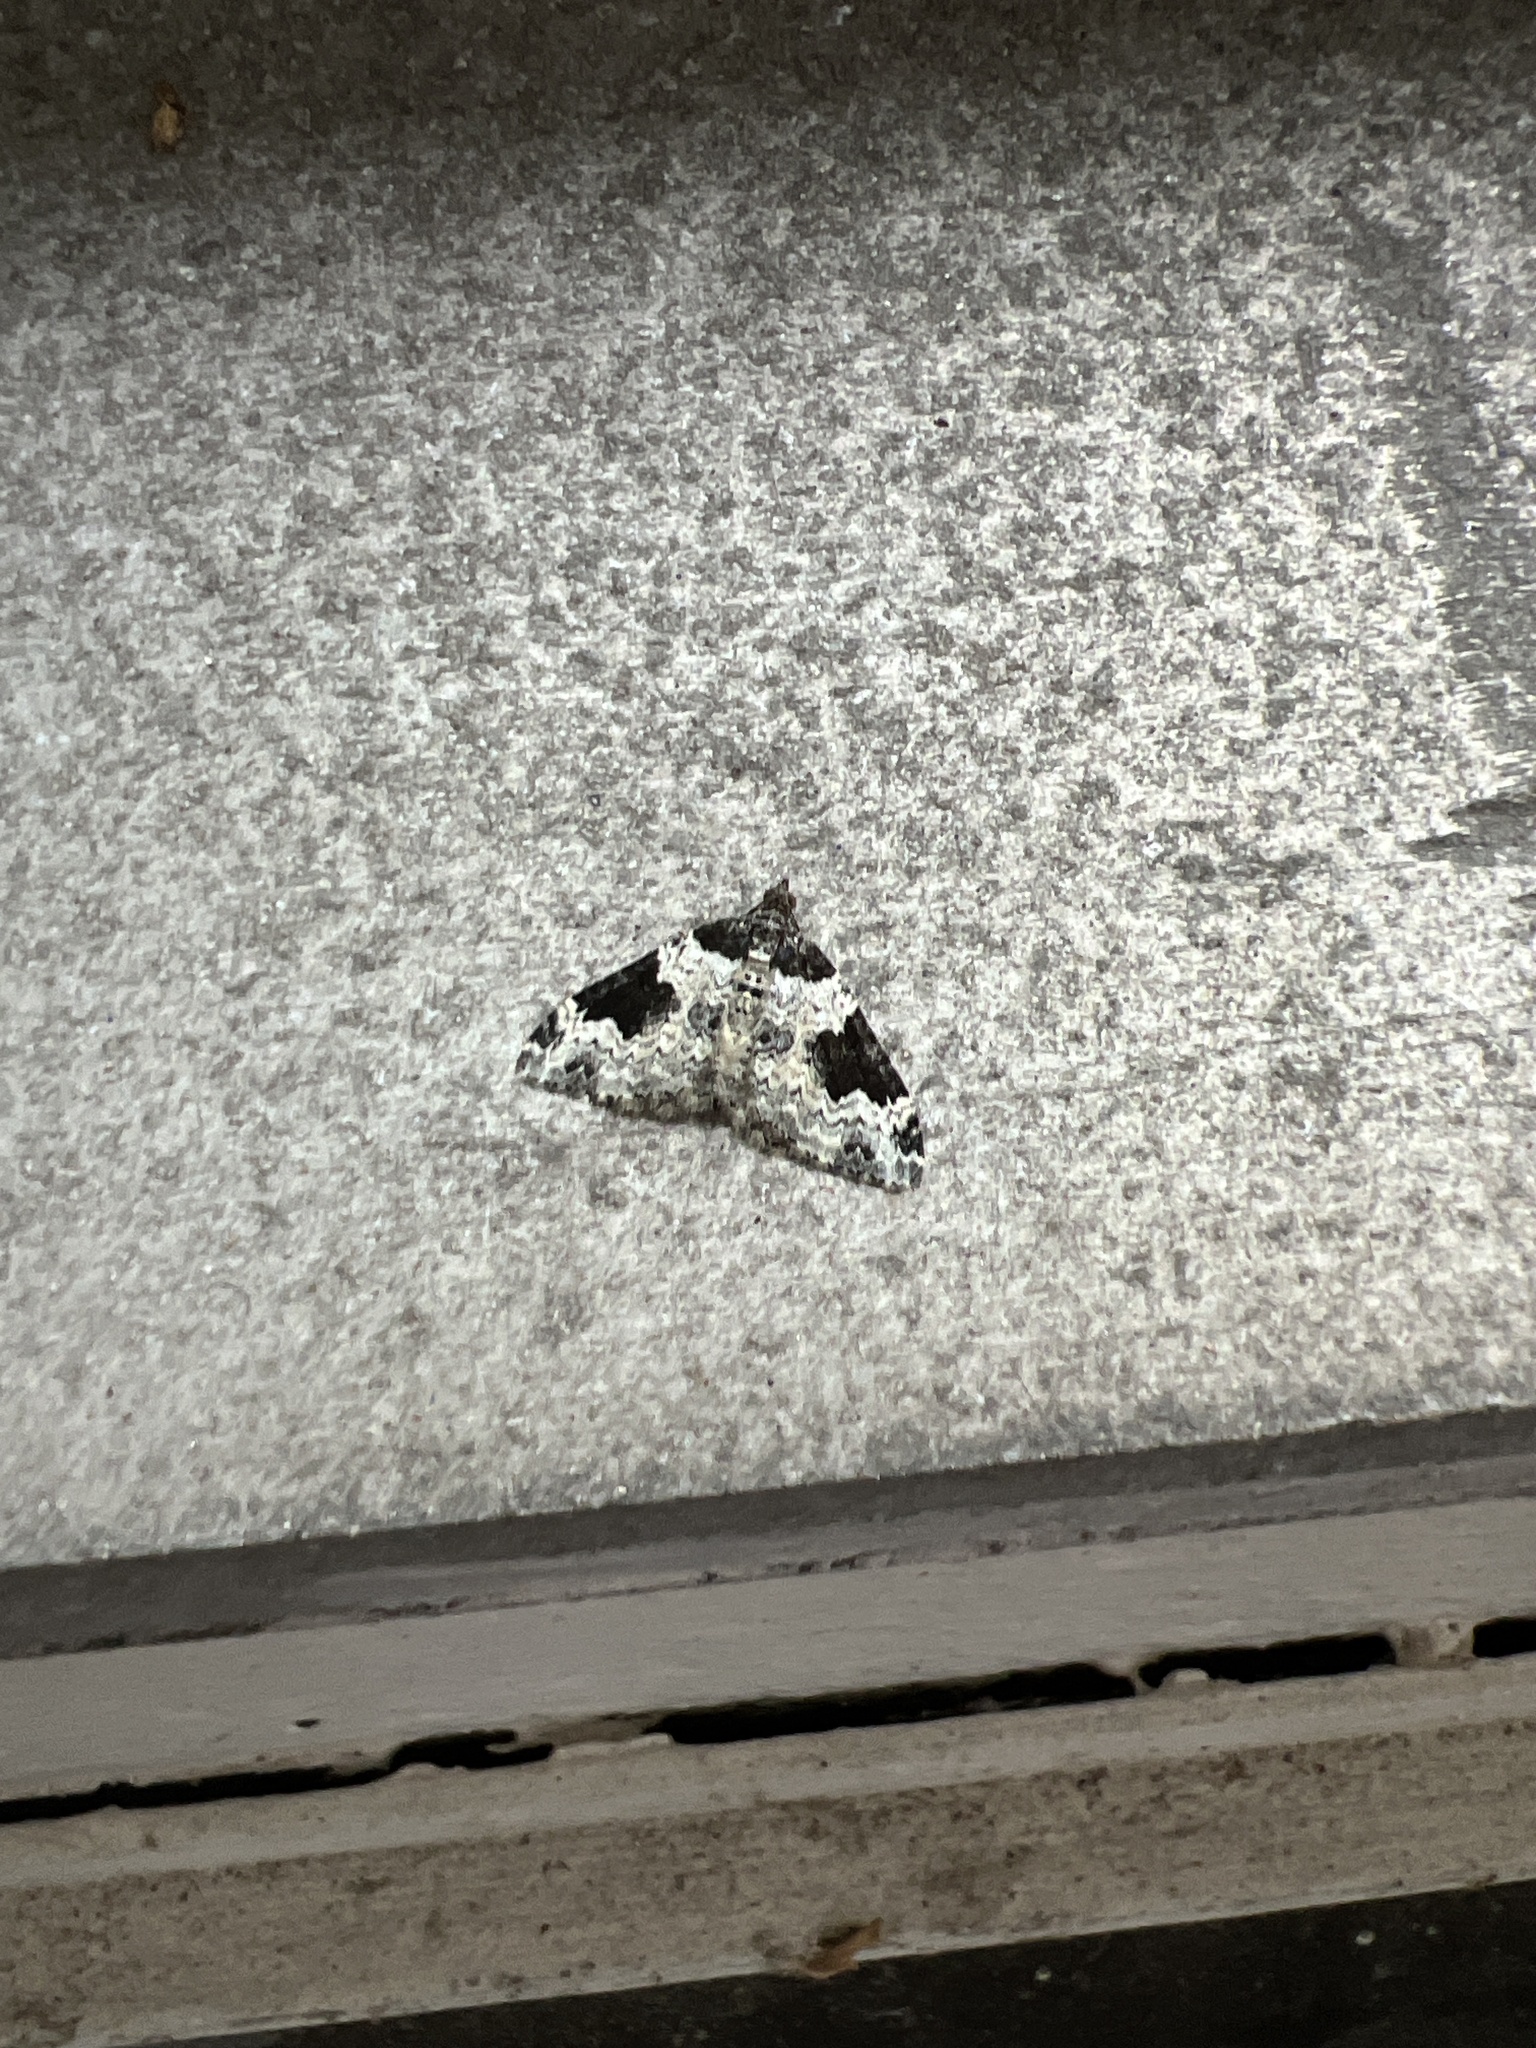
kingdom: Animalia
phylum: Arthropoda
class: Insecta
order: Lepidoptera
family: Geometridae
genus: Xanthorhoe
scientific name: Xanthorhoe fluctuata
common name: Garden carpet
